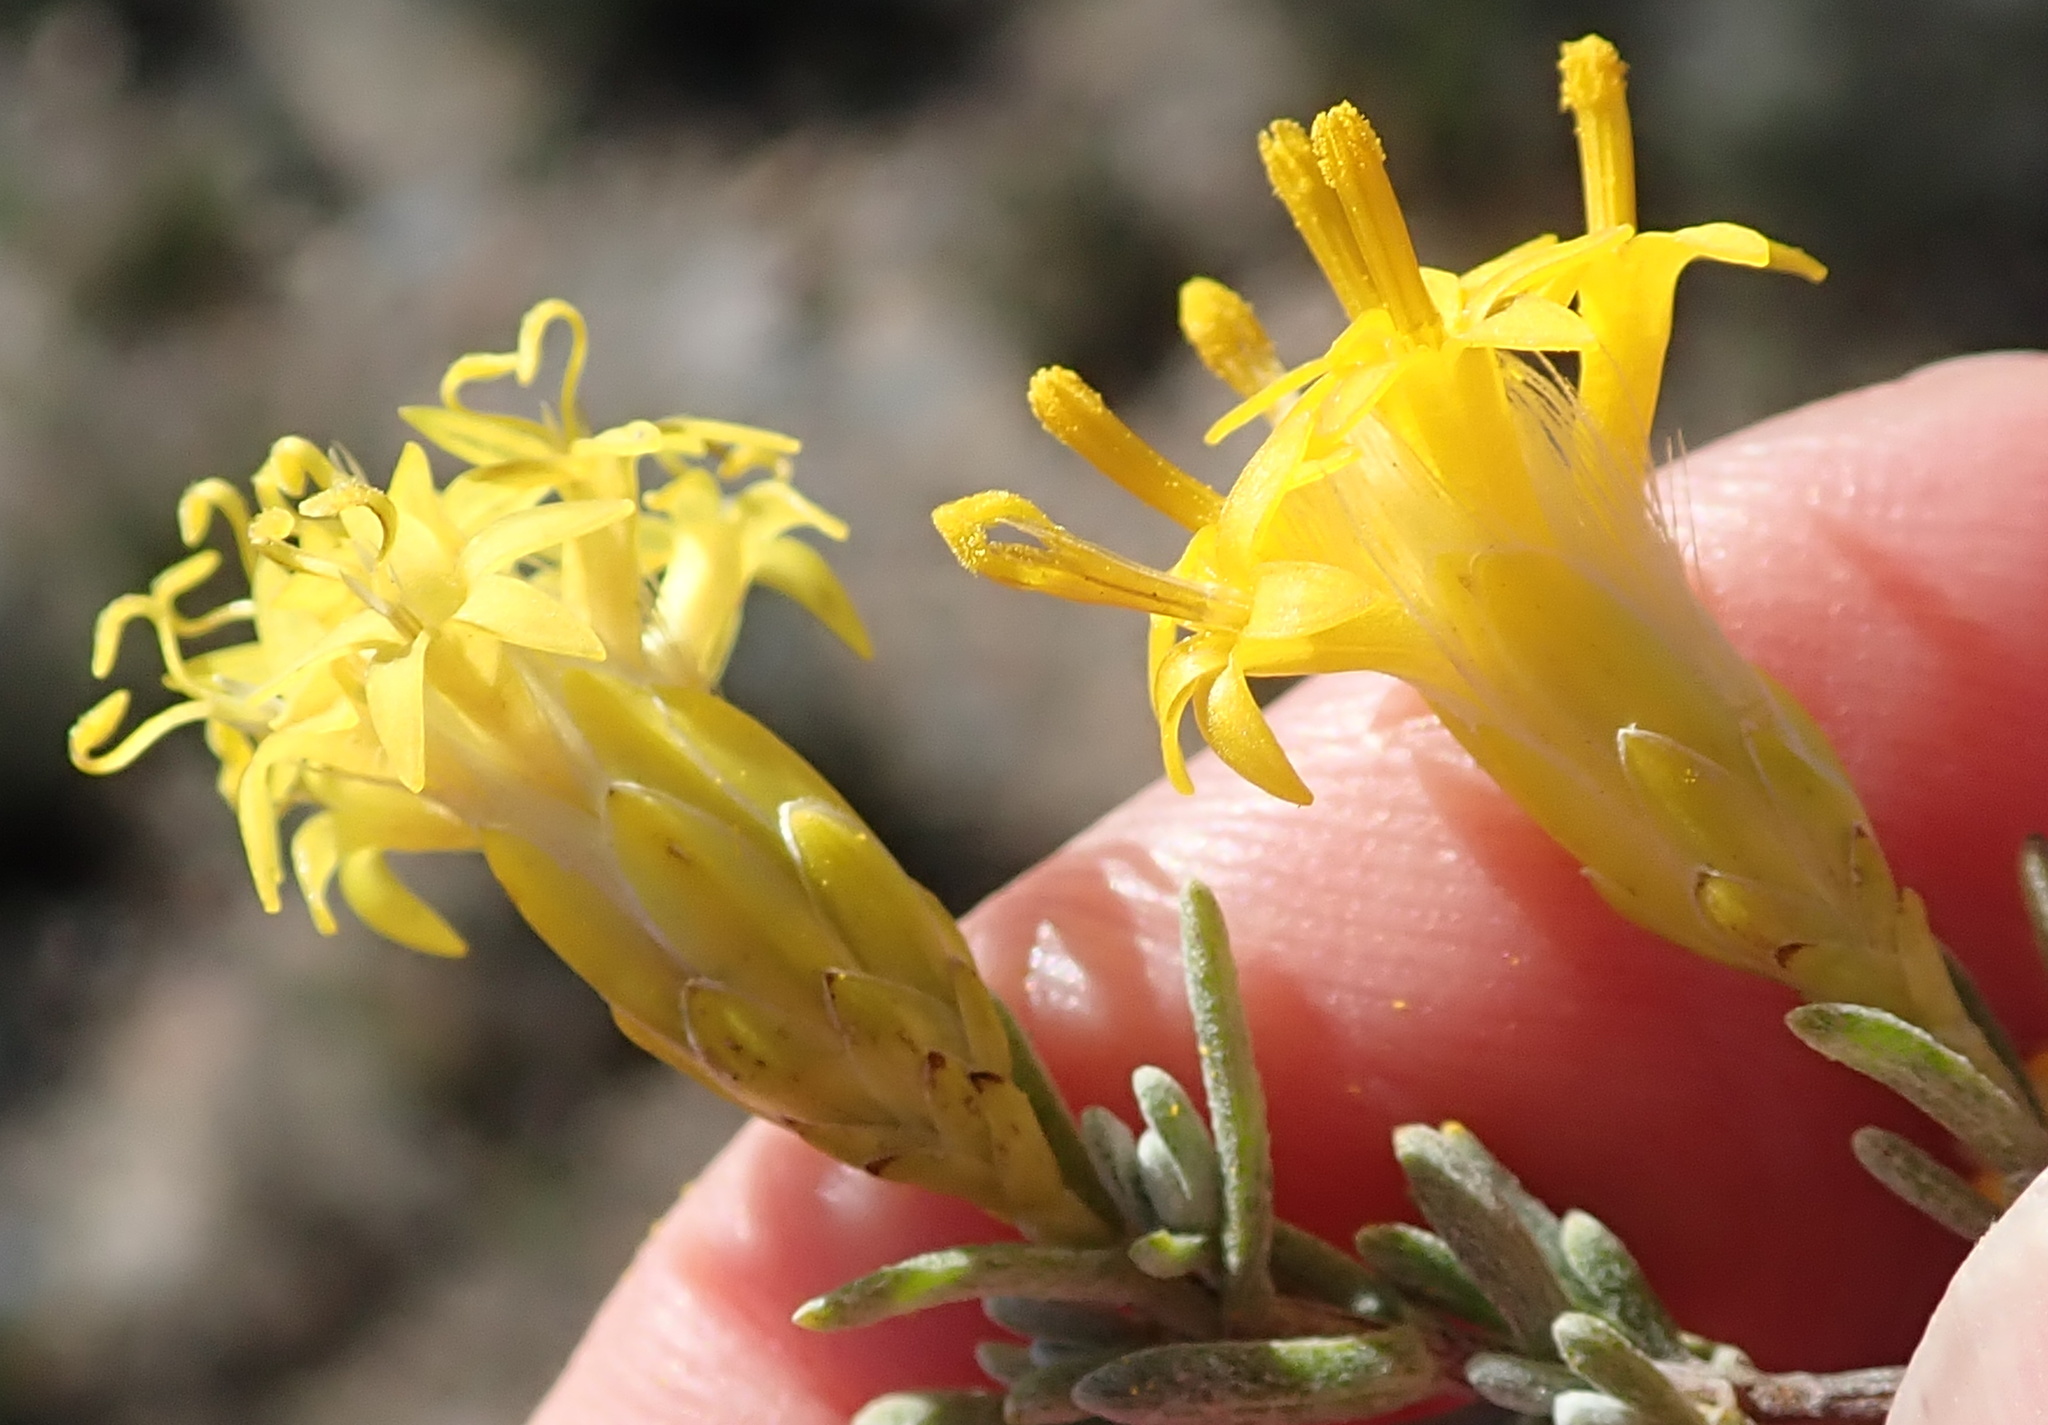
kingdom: Plantae
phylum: Tracheophyta
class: Magnoliopsida
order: Asterales
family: Asteraceae
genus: Pteronia
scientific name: Pteronia incana
